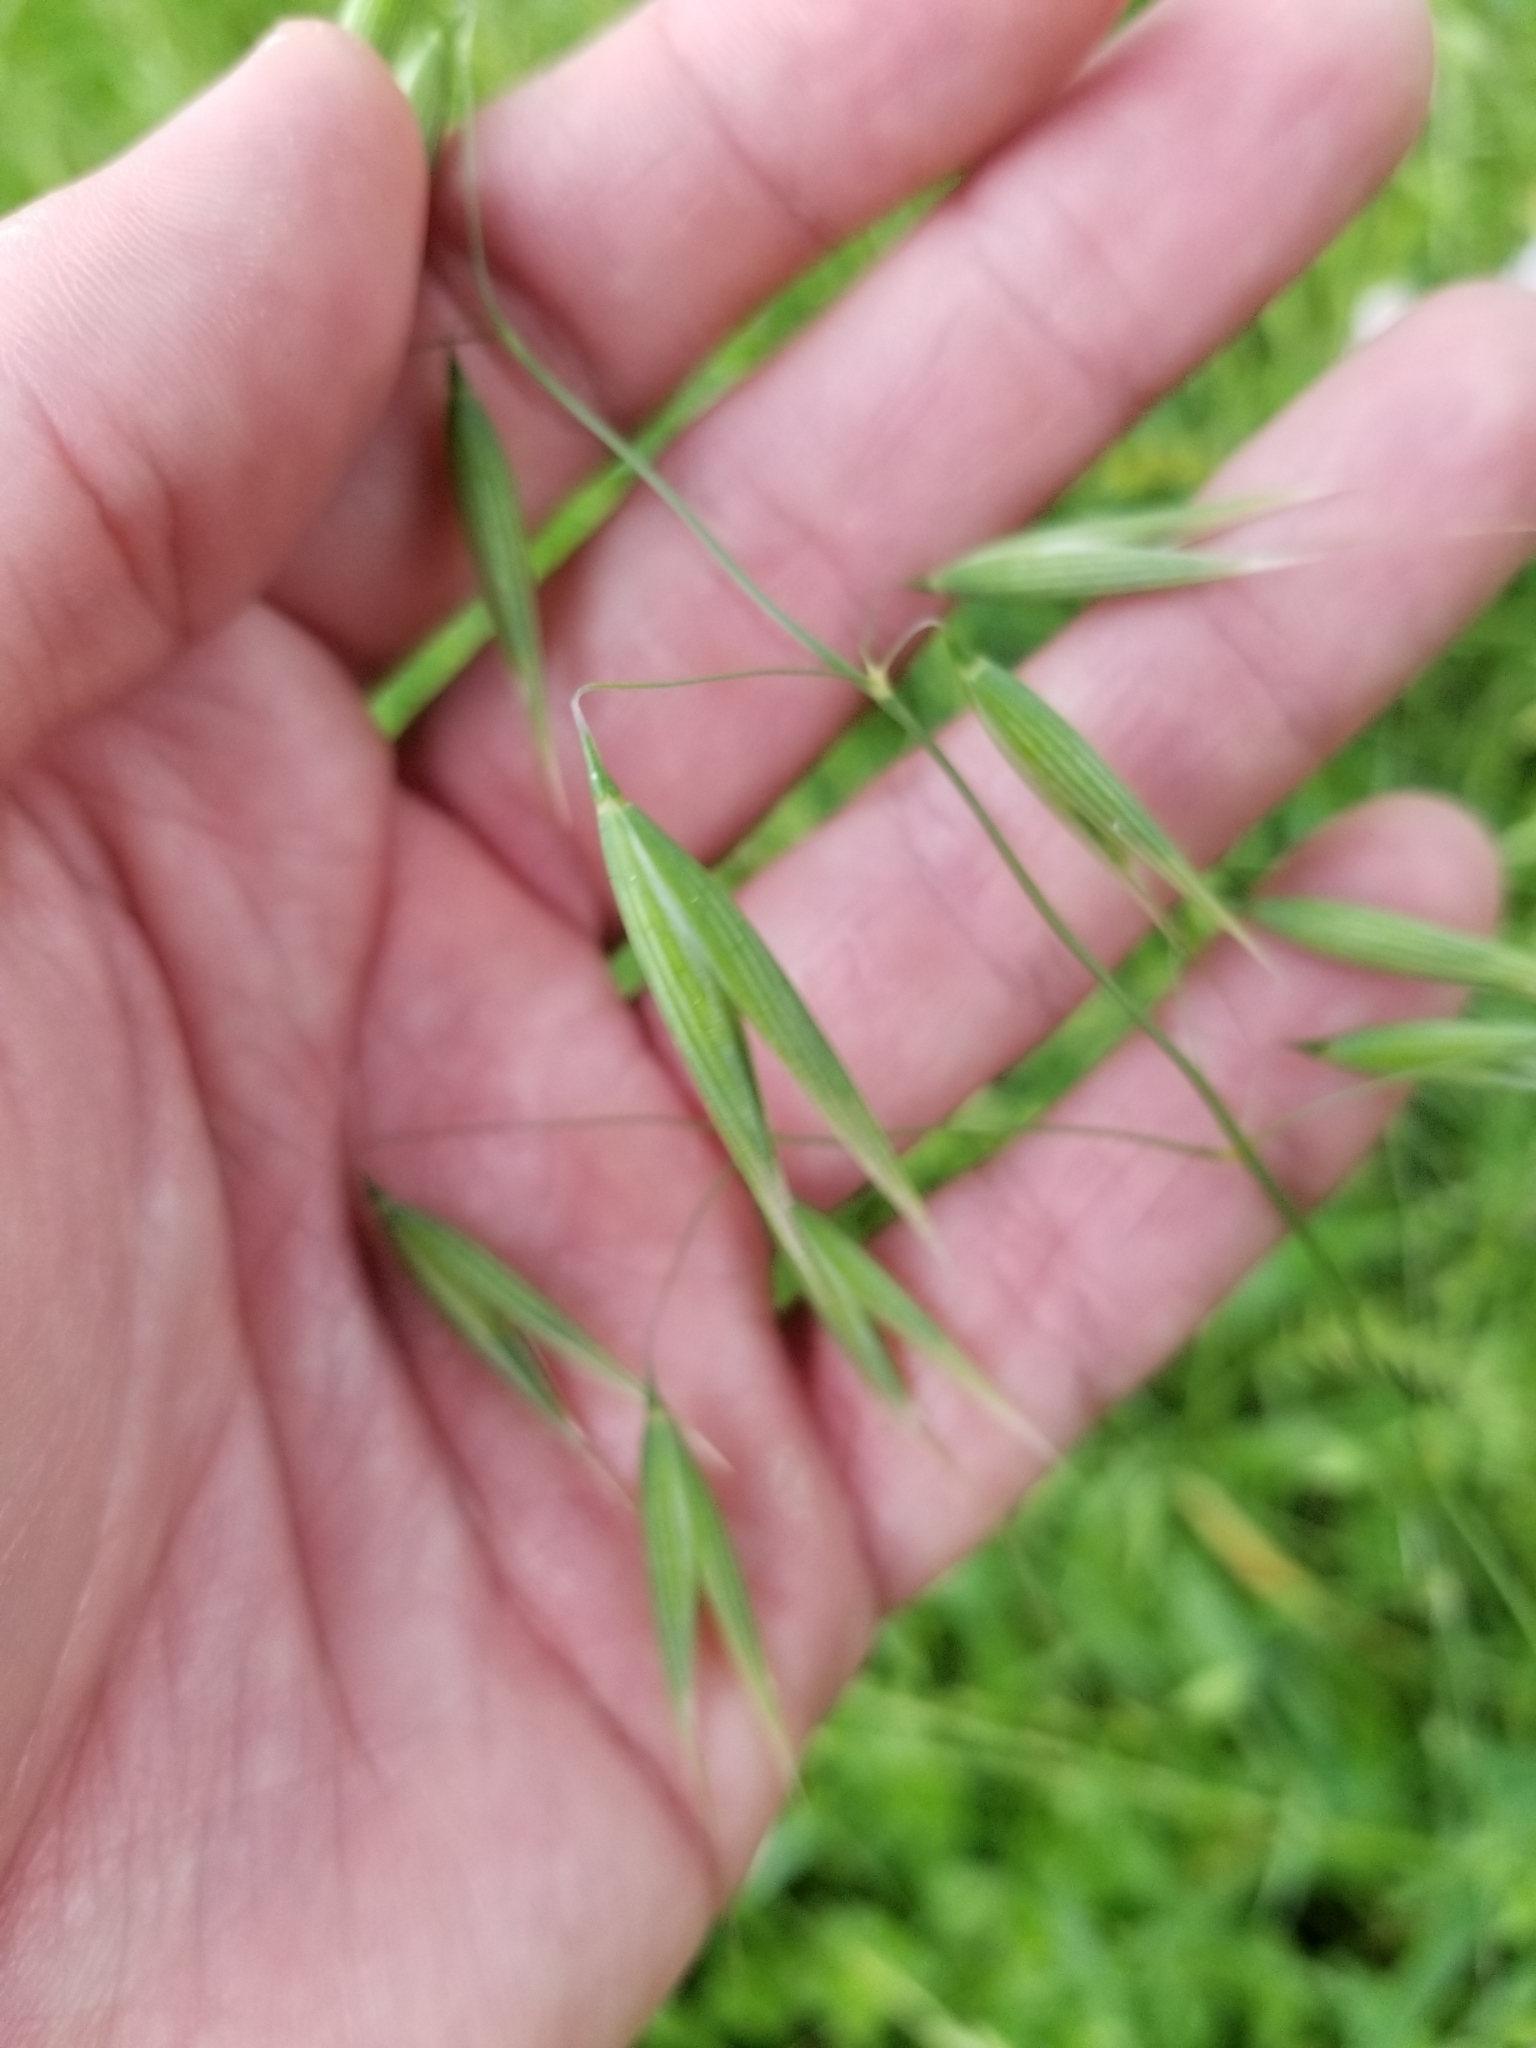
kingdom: Plantae
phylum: Tracheophyta
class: Liliopsida
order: Poales
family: Poaceae
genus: Avena
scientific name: Avena fatua
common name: Wild oat
